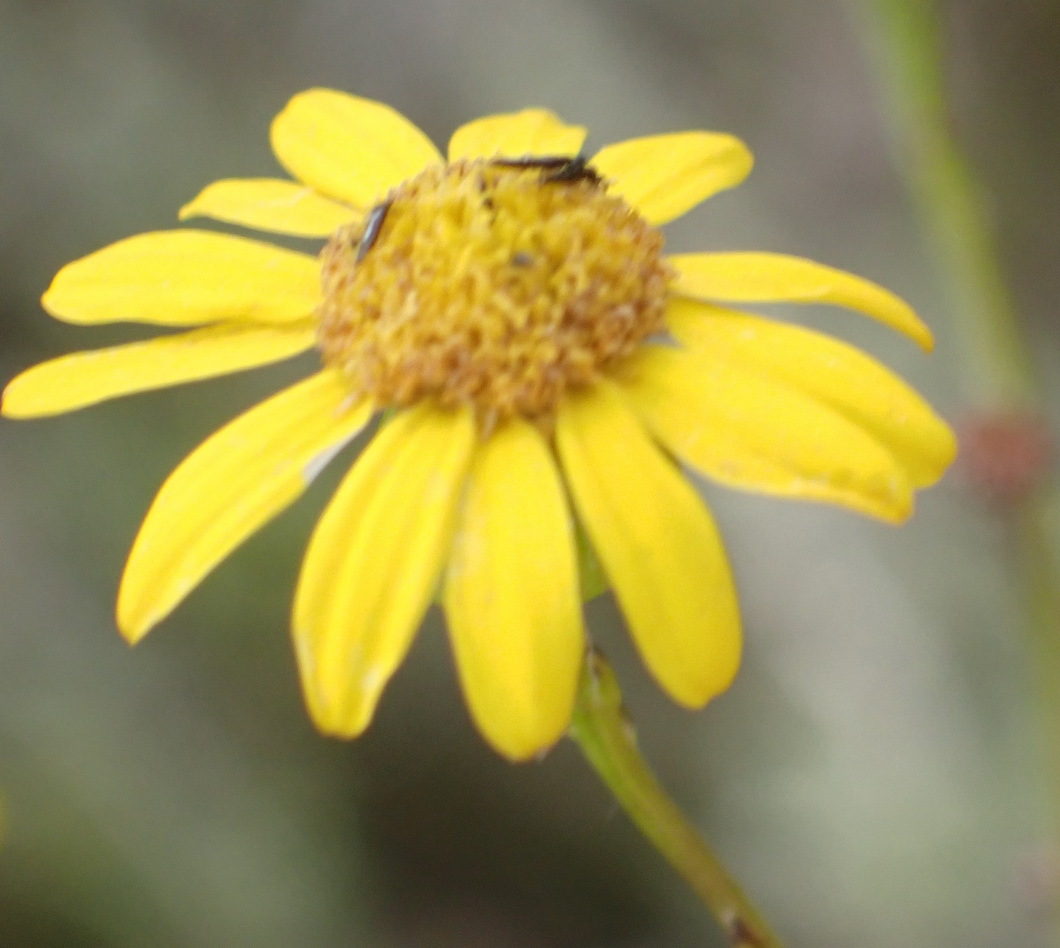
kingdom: Plantae
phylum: Tracheophyta
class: Magnoliopsida
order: Asterales
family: Asteraceae
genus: Senecio
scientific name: Senecio ilicifolius
